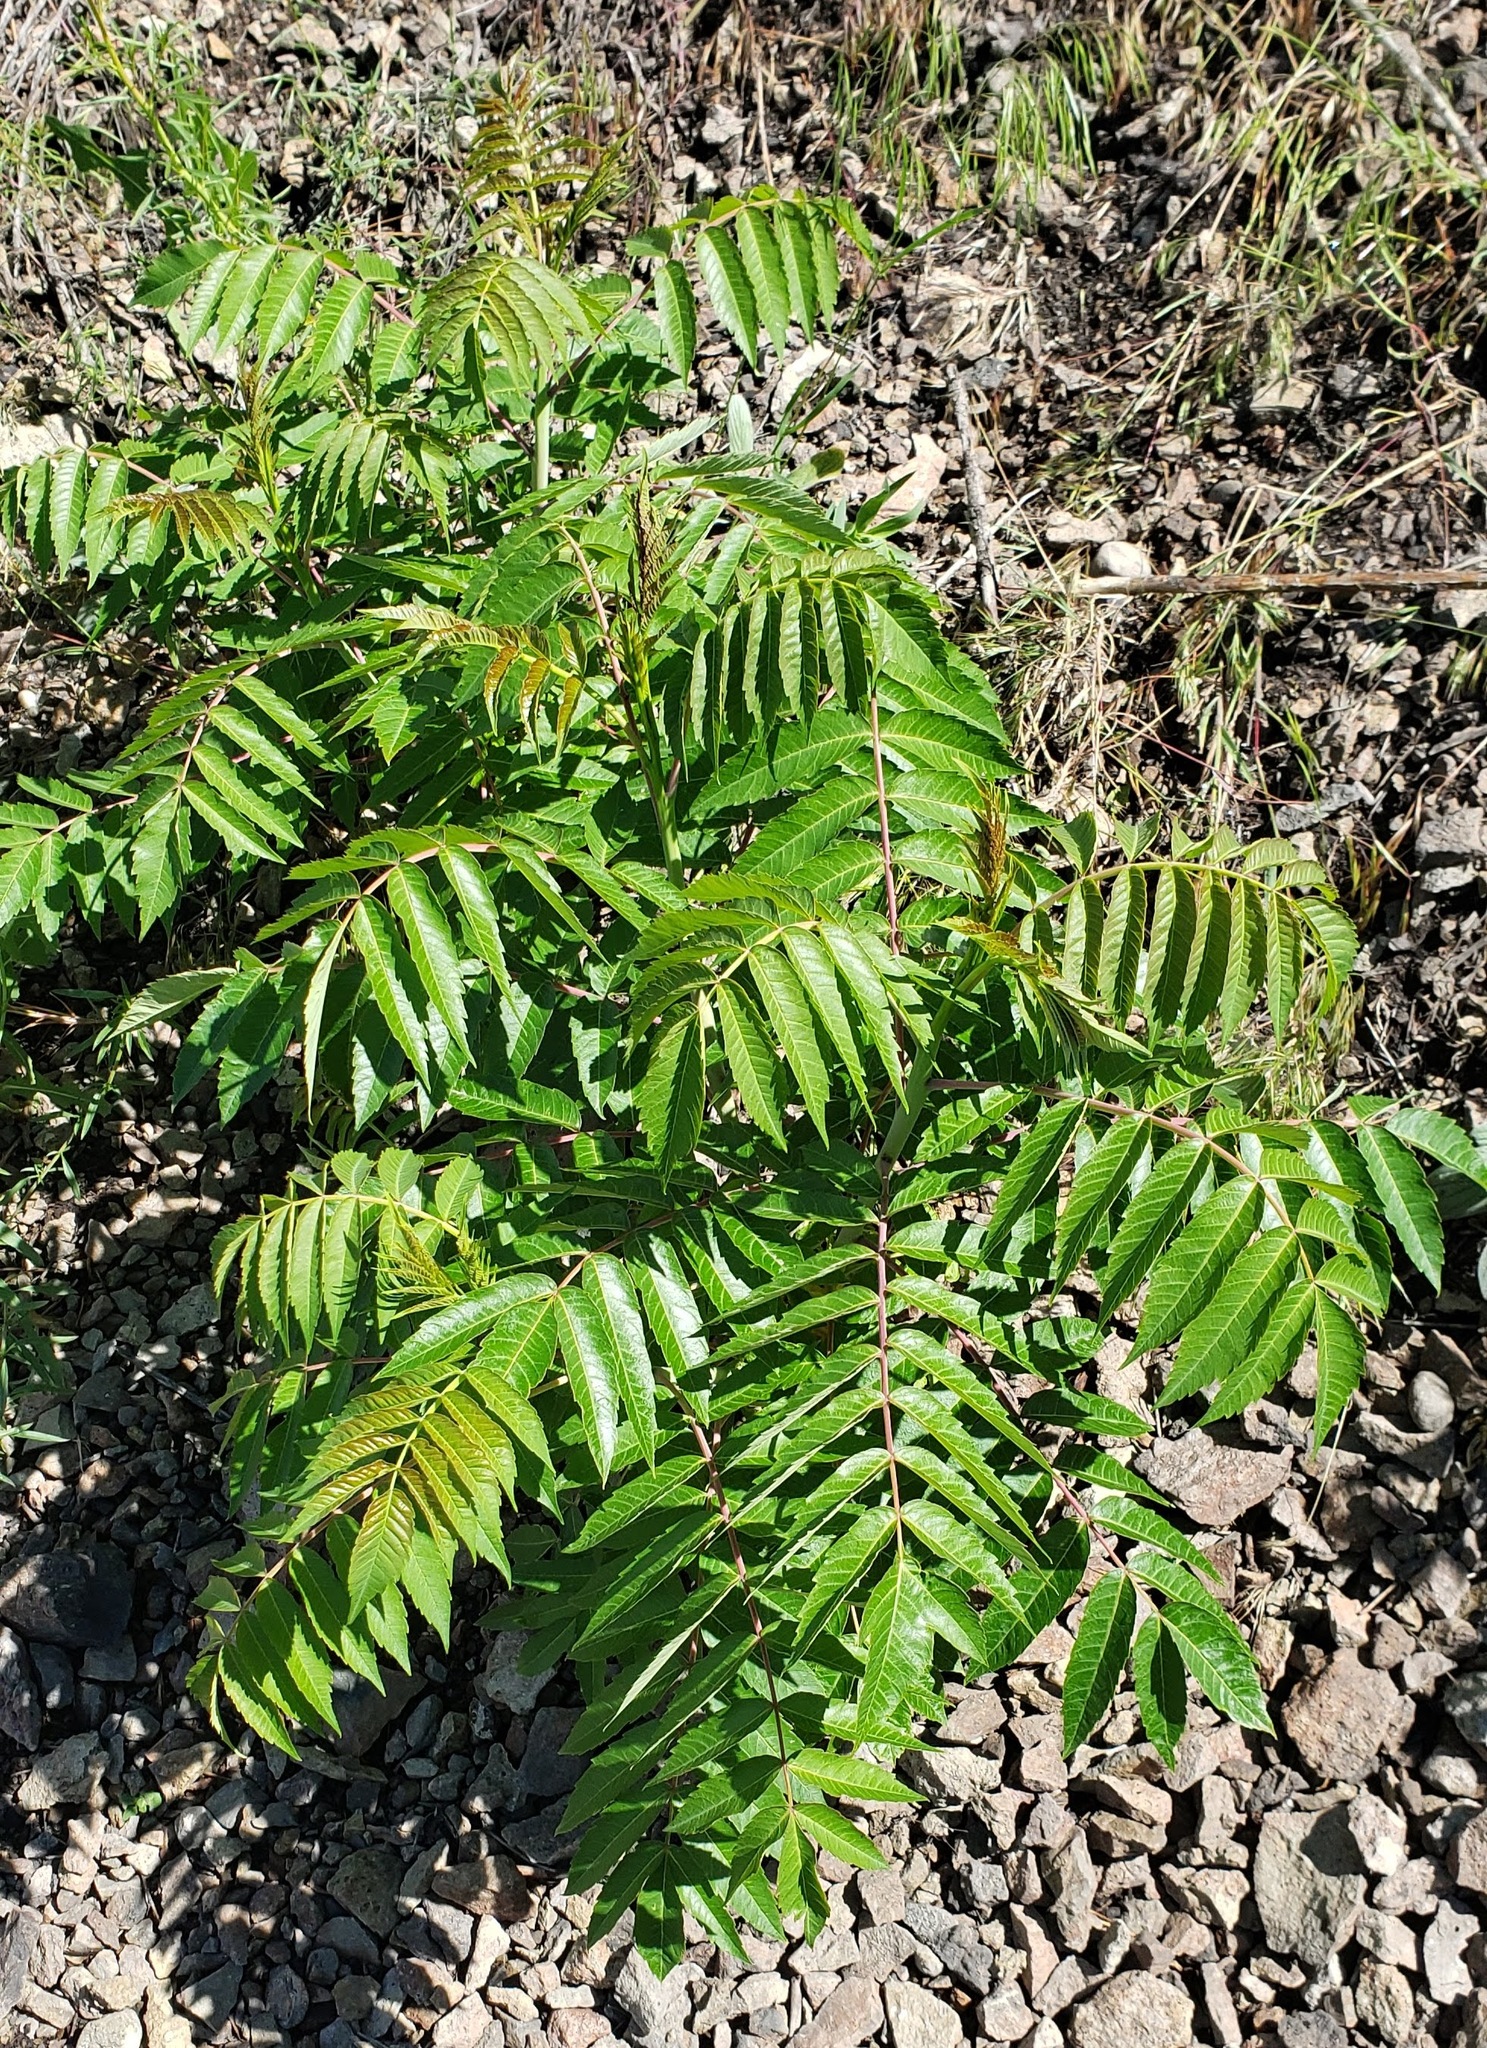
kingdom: Plantae
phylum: Tracheophyta
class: Magnoliopsida
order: Sapindales
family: Anacardiaceae
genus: Rhus
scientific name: Rhus glabra
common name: Scarlet sumac
